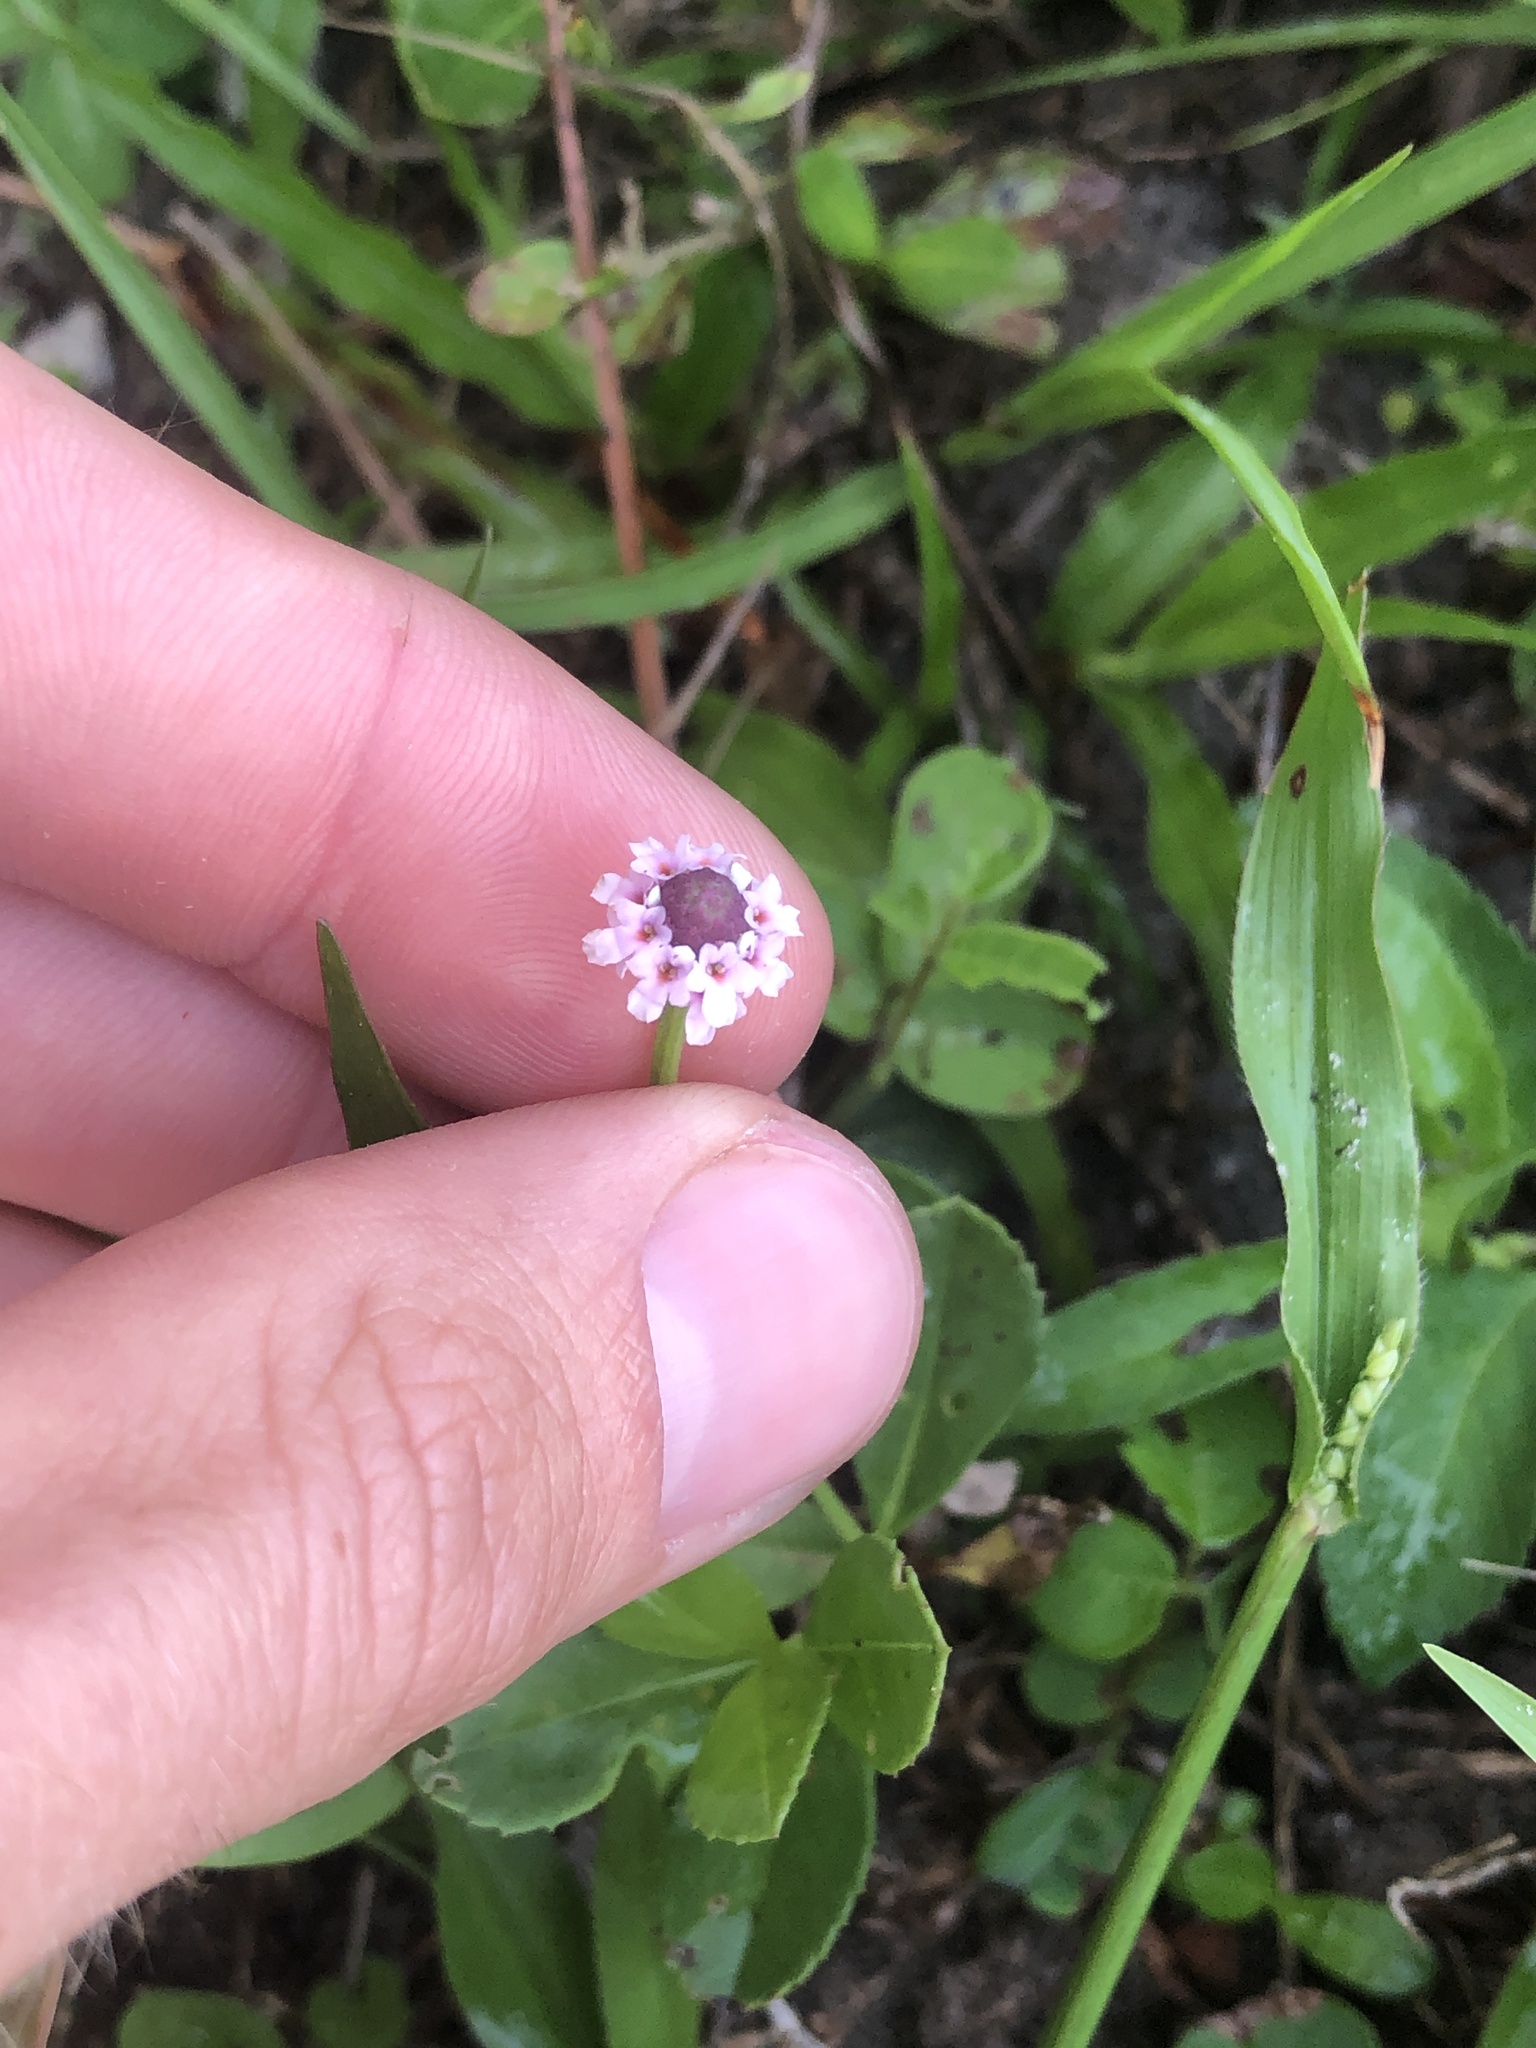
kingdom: Plantae
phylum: Tracheophyta
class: Magnoliopsida
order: Lamiales
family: Verbenaceae
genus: Phyla
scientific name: Phyla nodiflora
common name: Frogfruit
